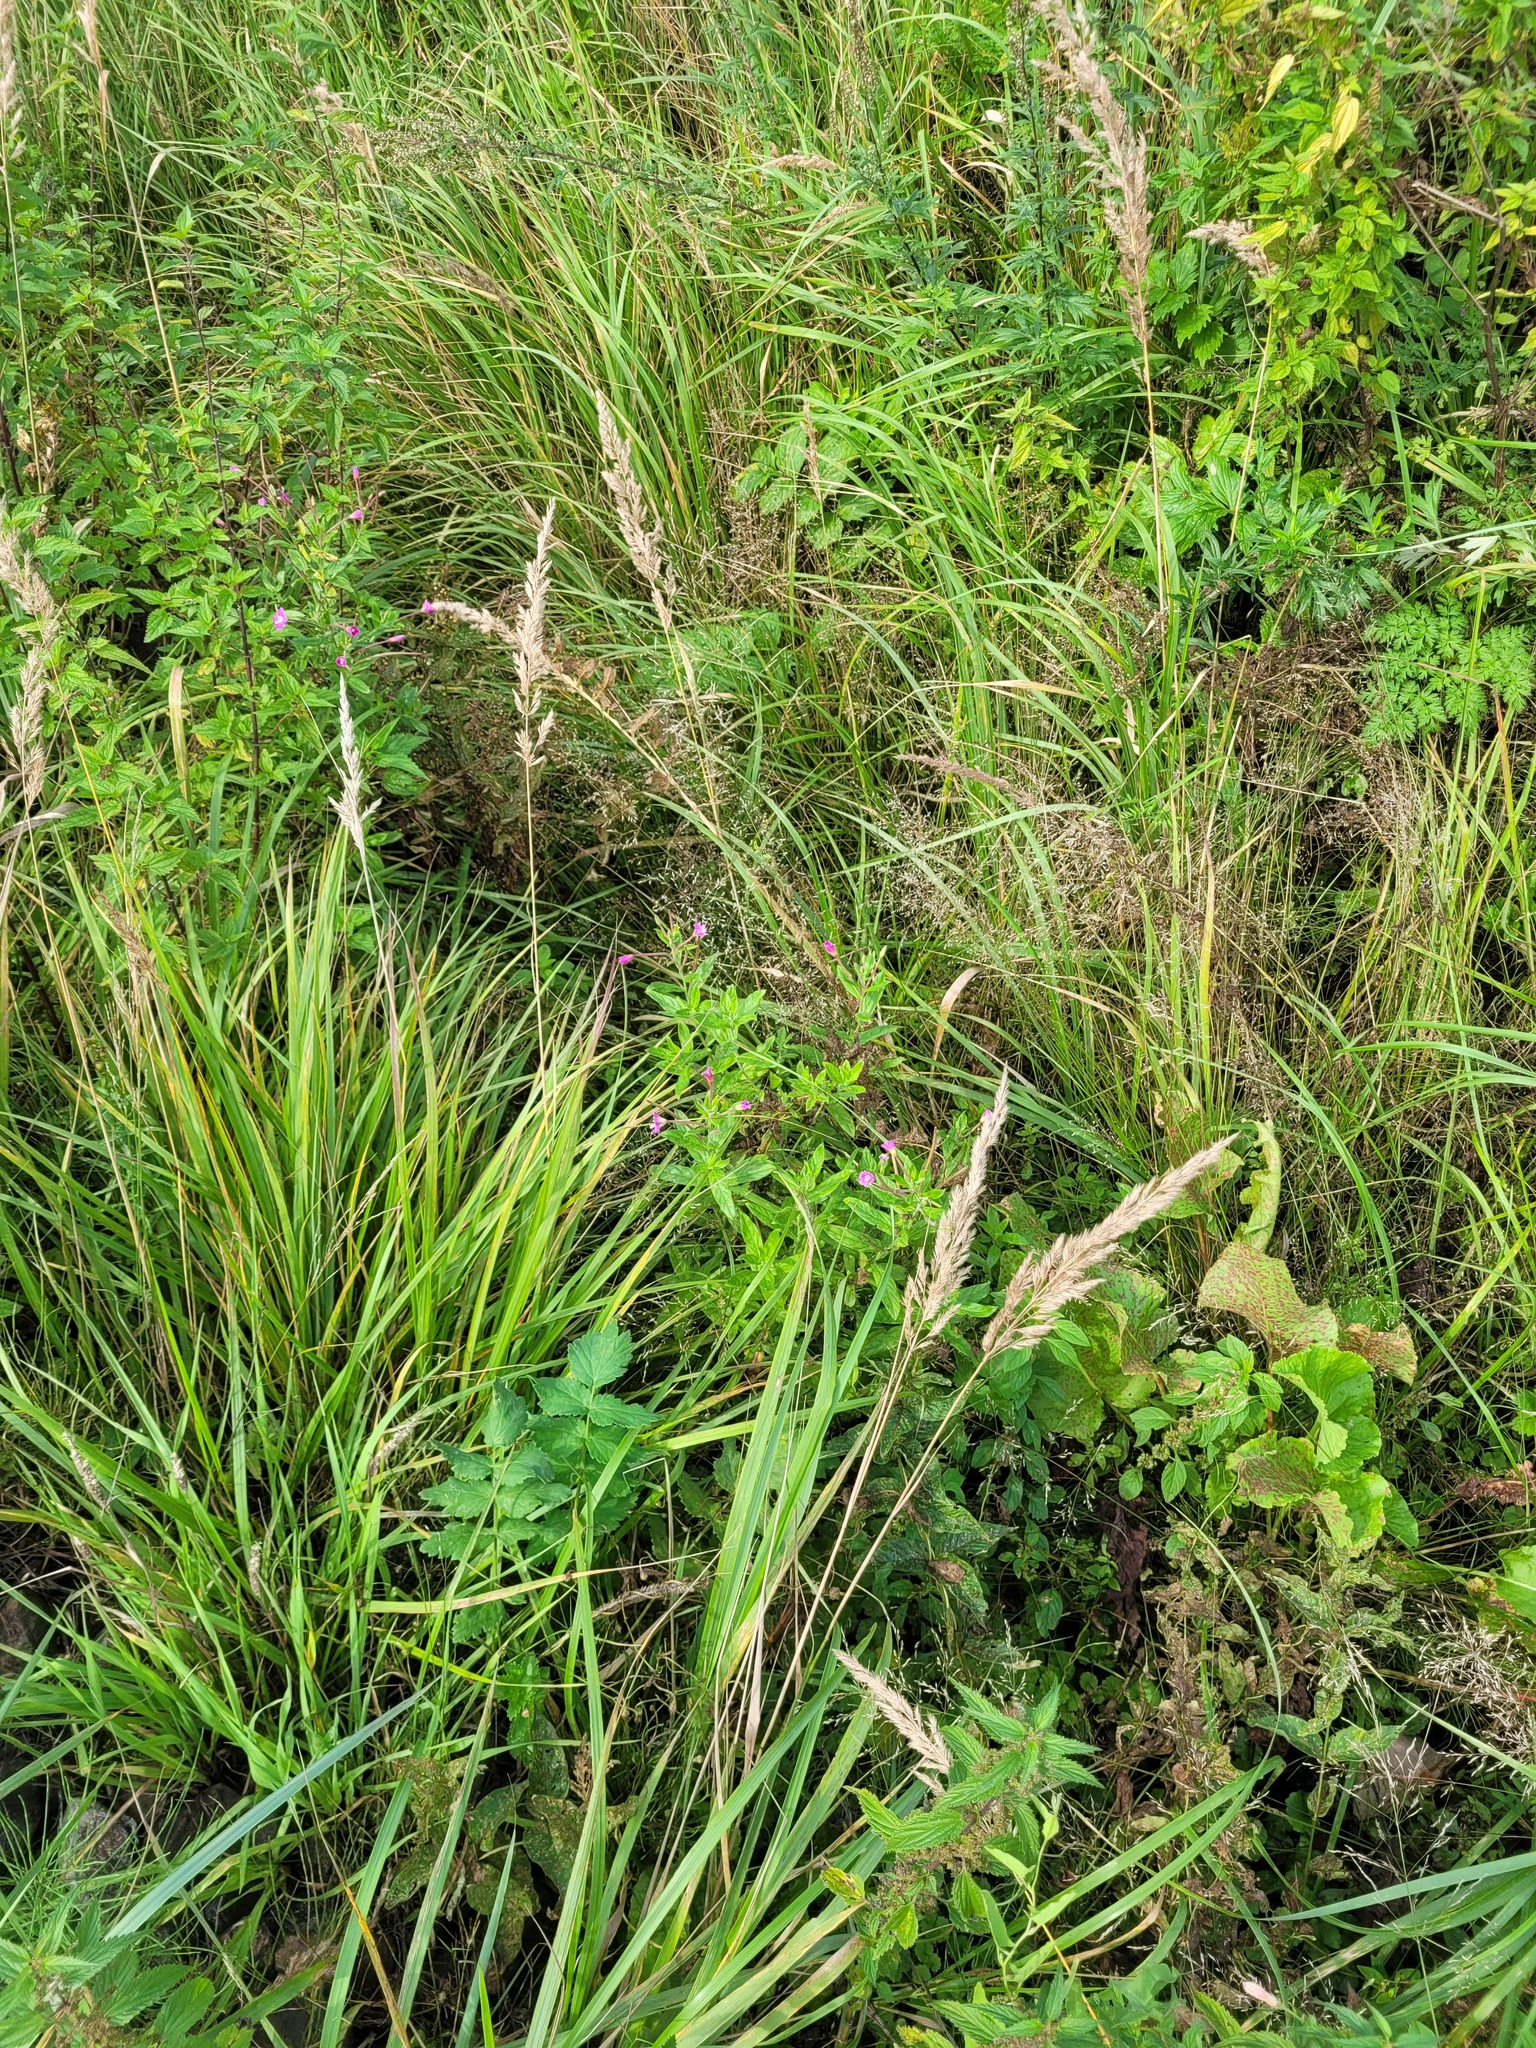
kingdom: Plantae
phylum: Tracheophyta
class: Magnoliopsida
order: Myrtales
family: Onagraceae
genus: Epilobium
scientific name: Epilobium hirsutum
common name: Great willowherb
